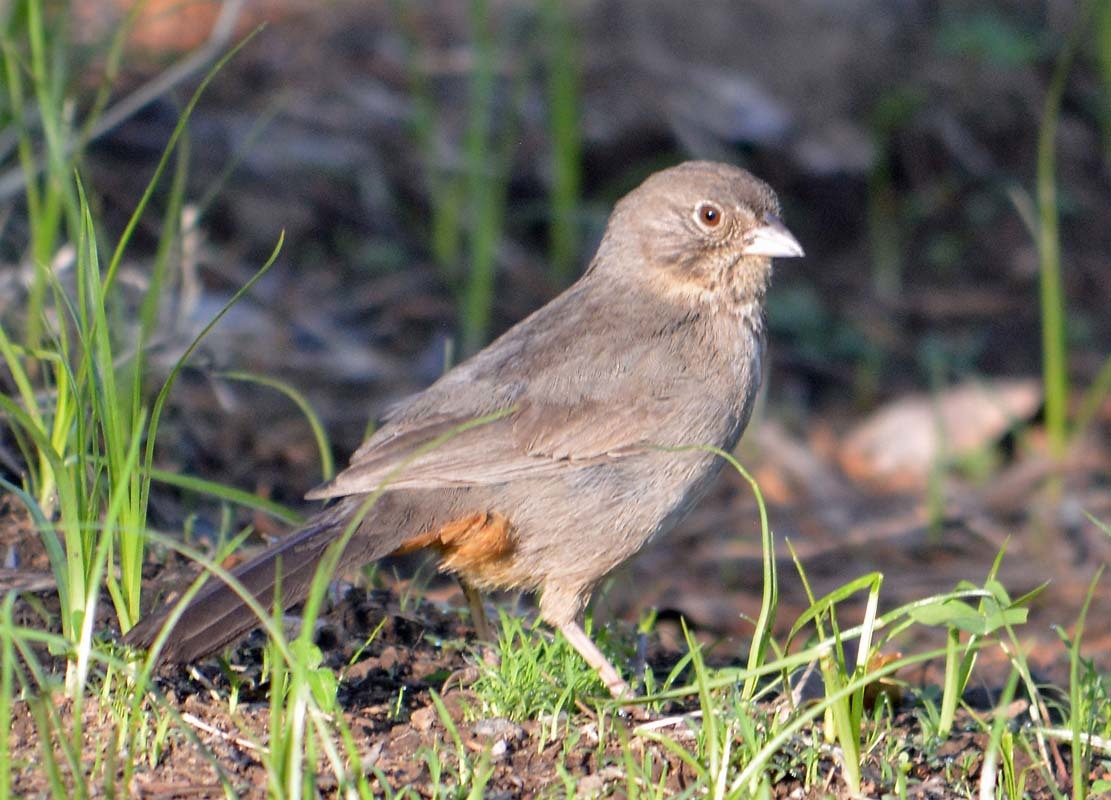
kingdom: Animalia
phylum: Chordata
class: Aves
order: Passeriformes
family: Passerellidae
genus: Melozone
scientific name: Melozone fusca
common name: Canyon towhee
